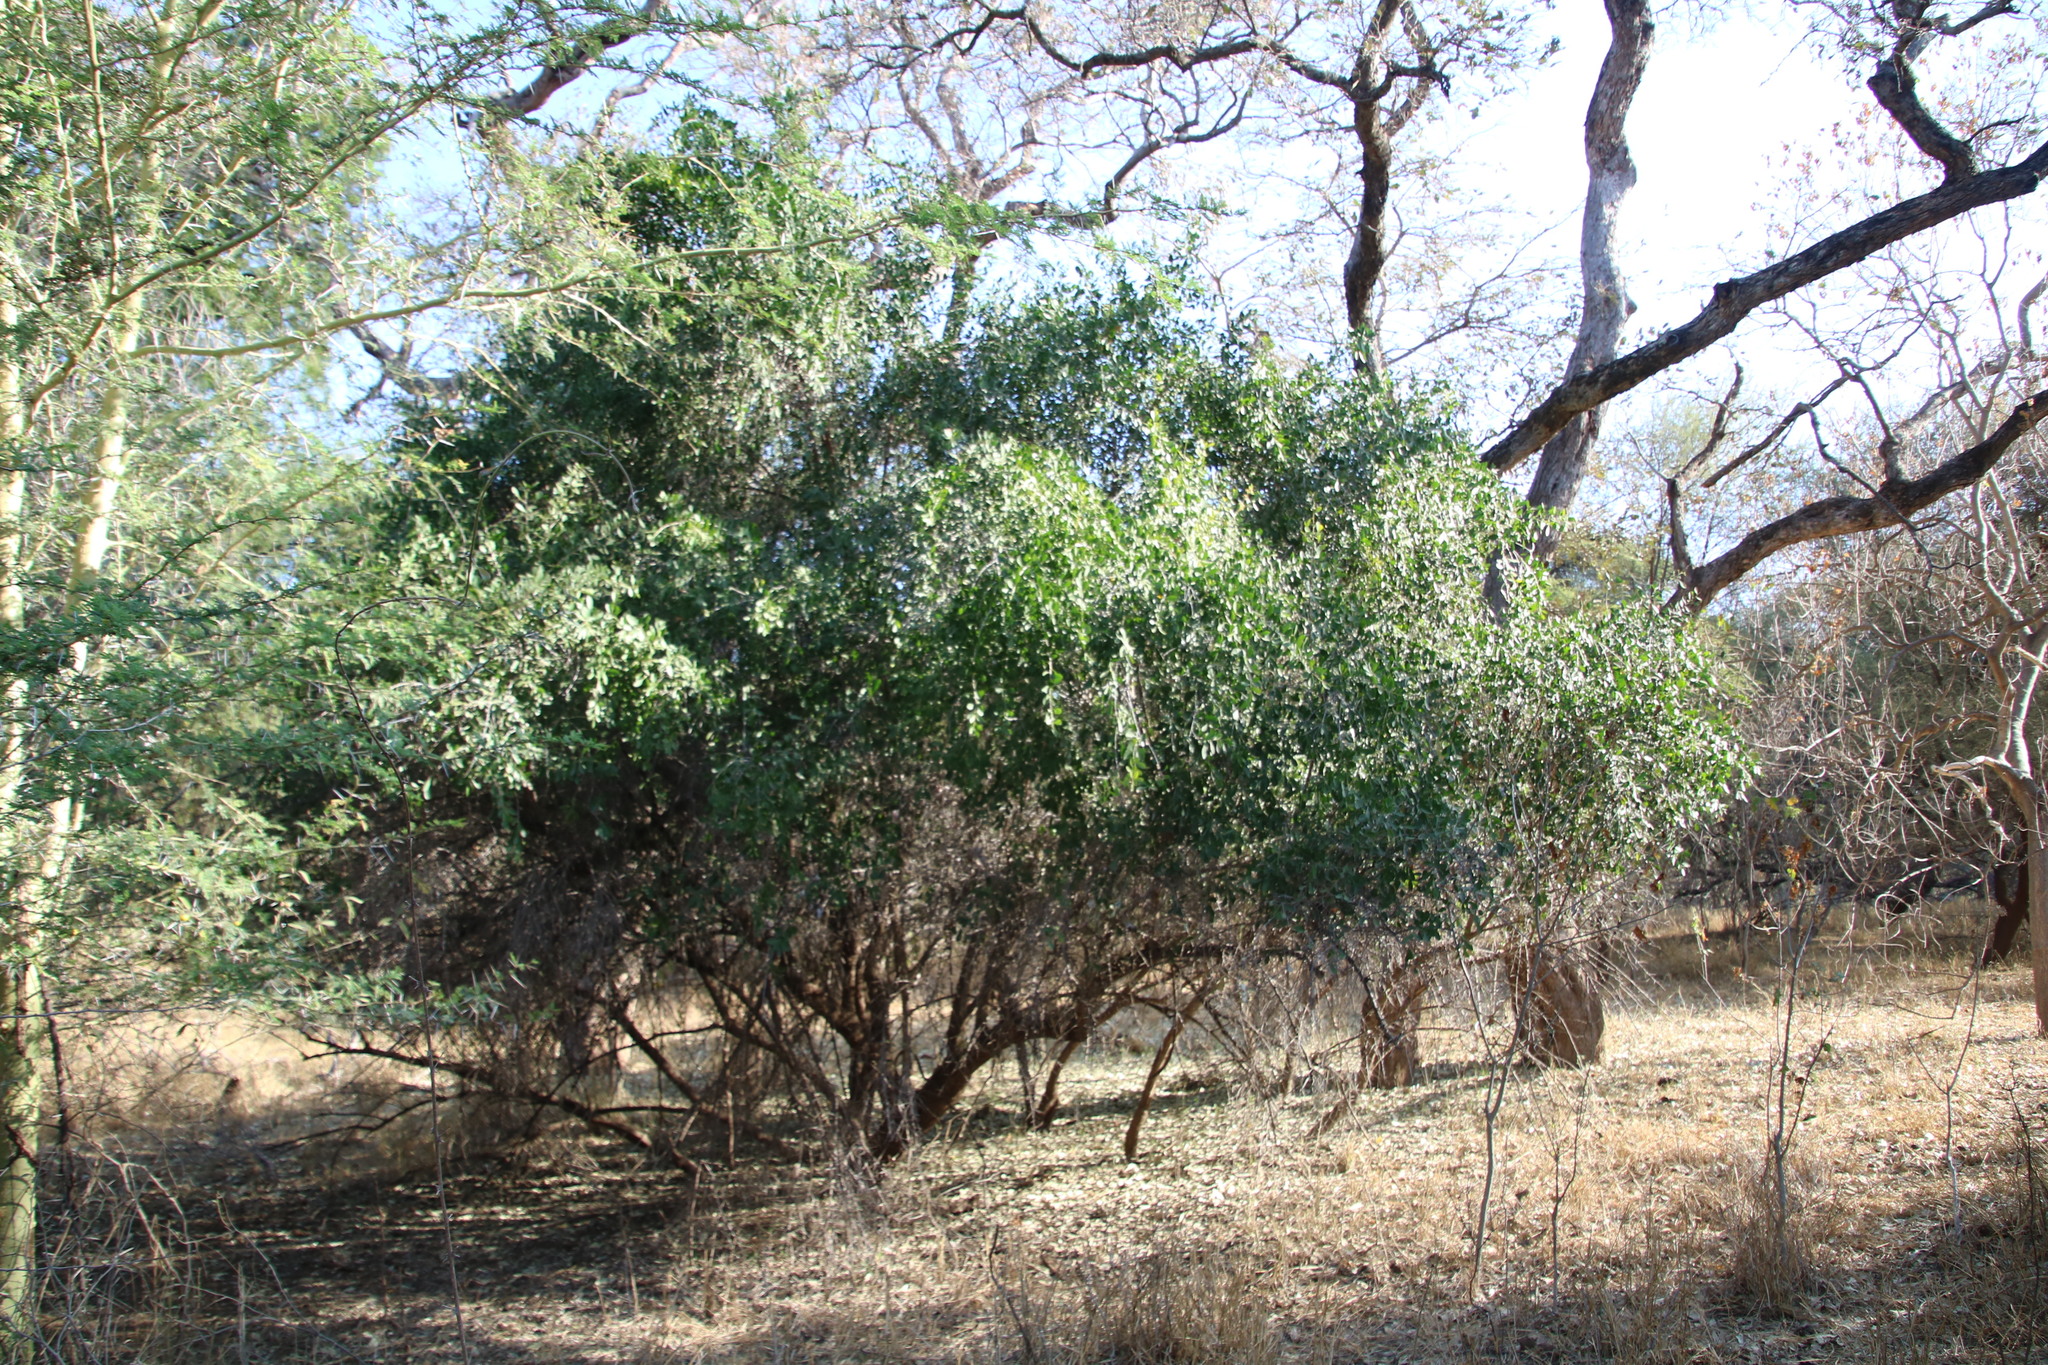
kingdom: Plantae
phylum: Tracheophyta
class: Magnoliopsida
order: Celastrales
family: Celastraceae
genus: Gymnosporia
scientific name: Gymnosporia senegalensis
